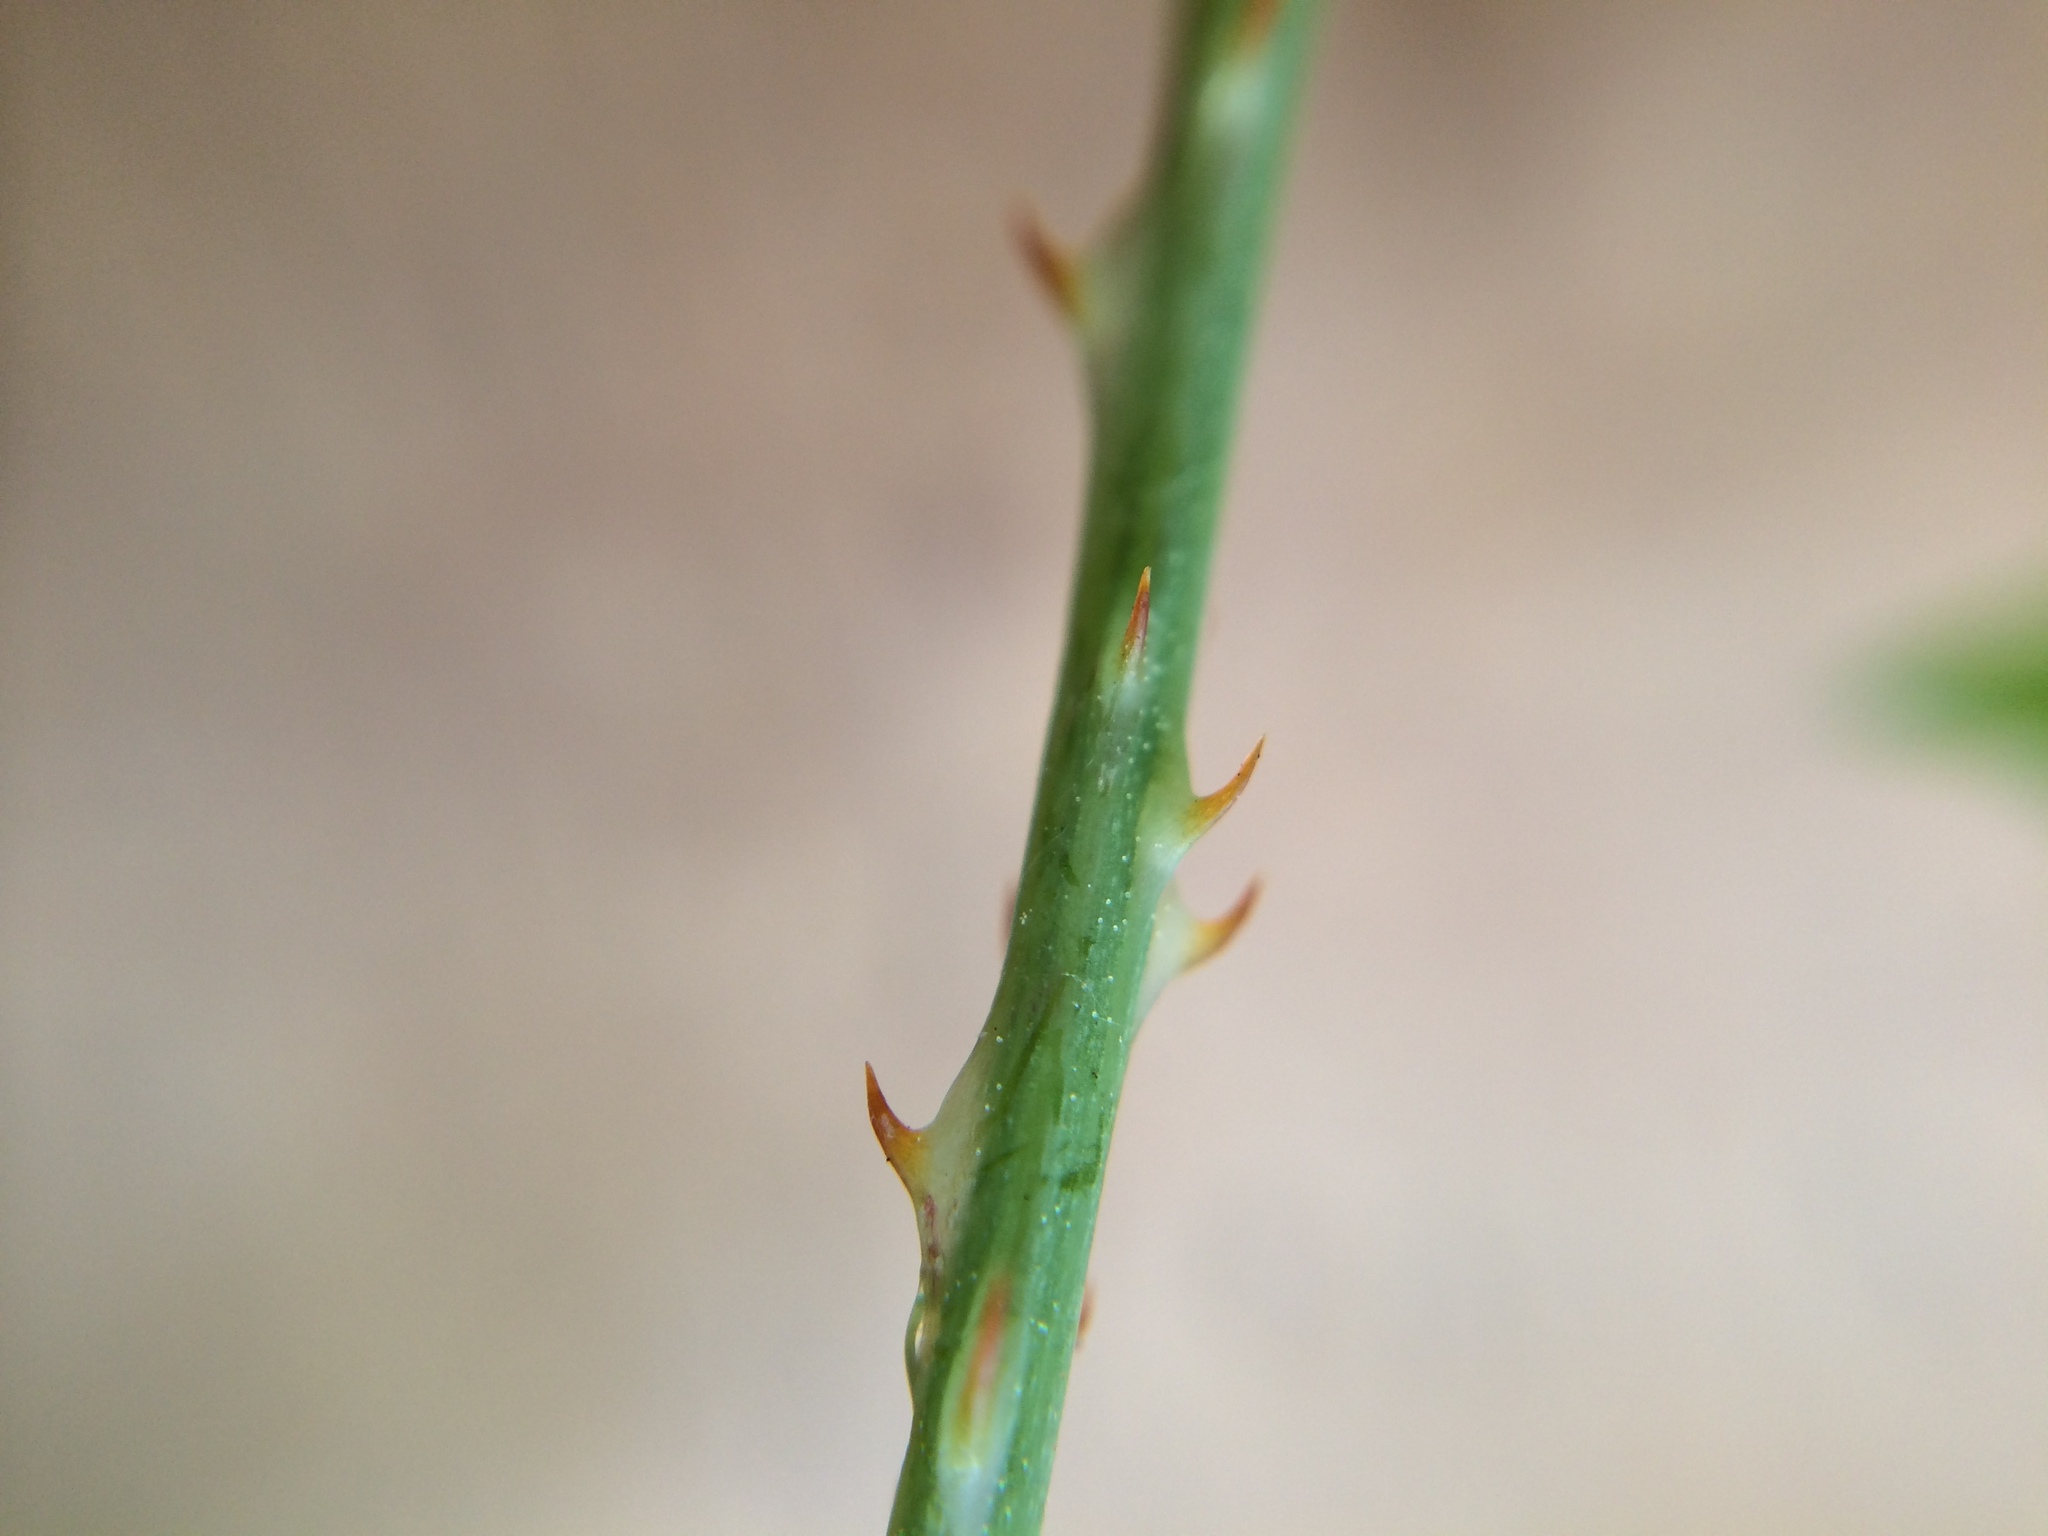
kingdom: Plantae
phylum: Tracheophyta
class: Magnoliopsida
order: Caryophyllales
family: Polygonaceae
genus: Persicaria
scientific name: Persicaria perfoliata
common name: Asiatic tearthumb
